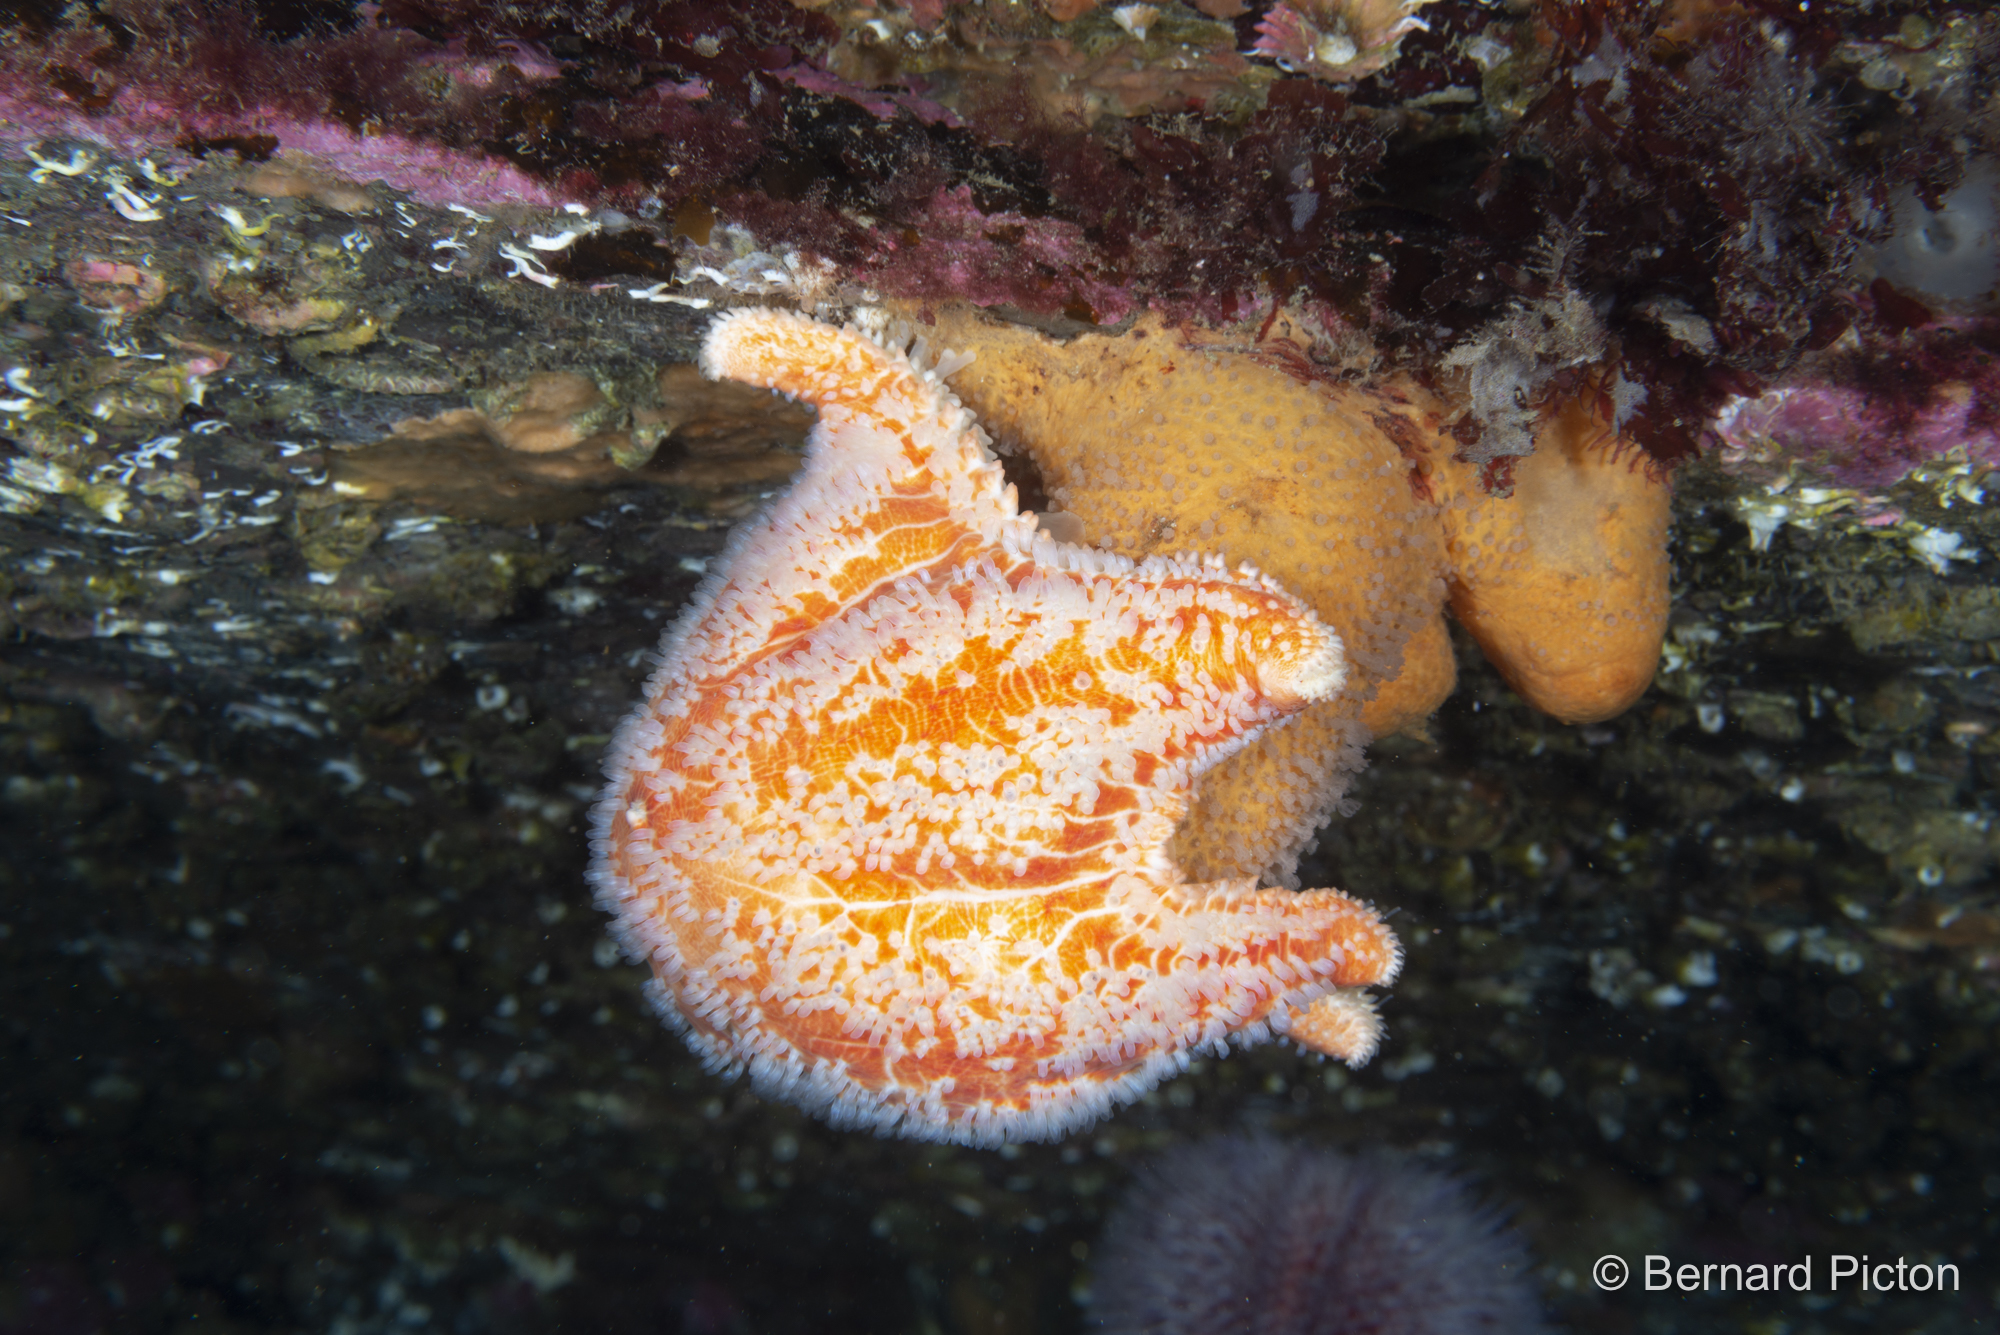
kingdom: Animalia
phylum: Echinodermata
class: Asteroidea
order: Valvatida
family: Poraniidae
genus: Porania
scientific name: Porania pulvillus
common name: Red cushion stat
